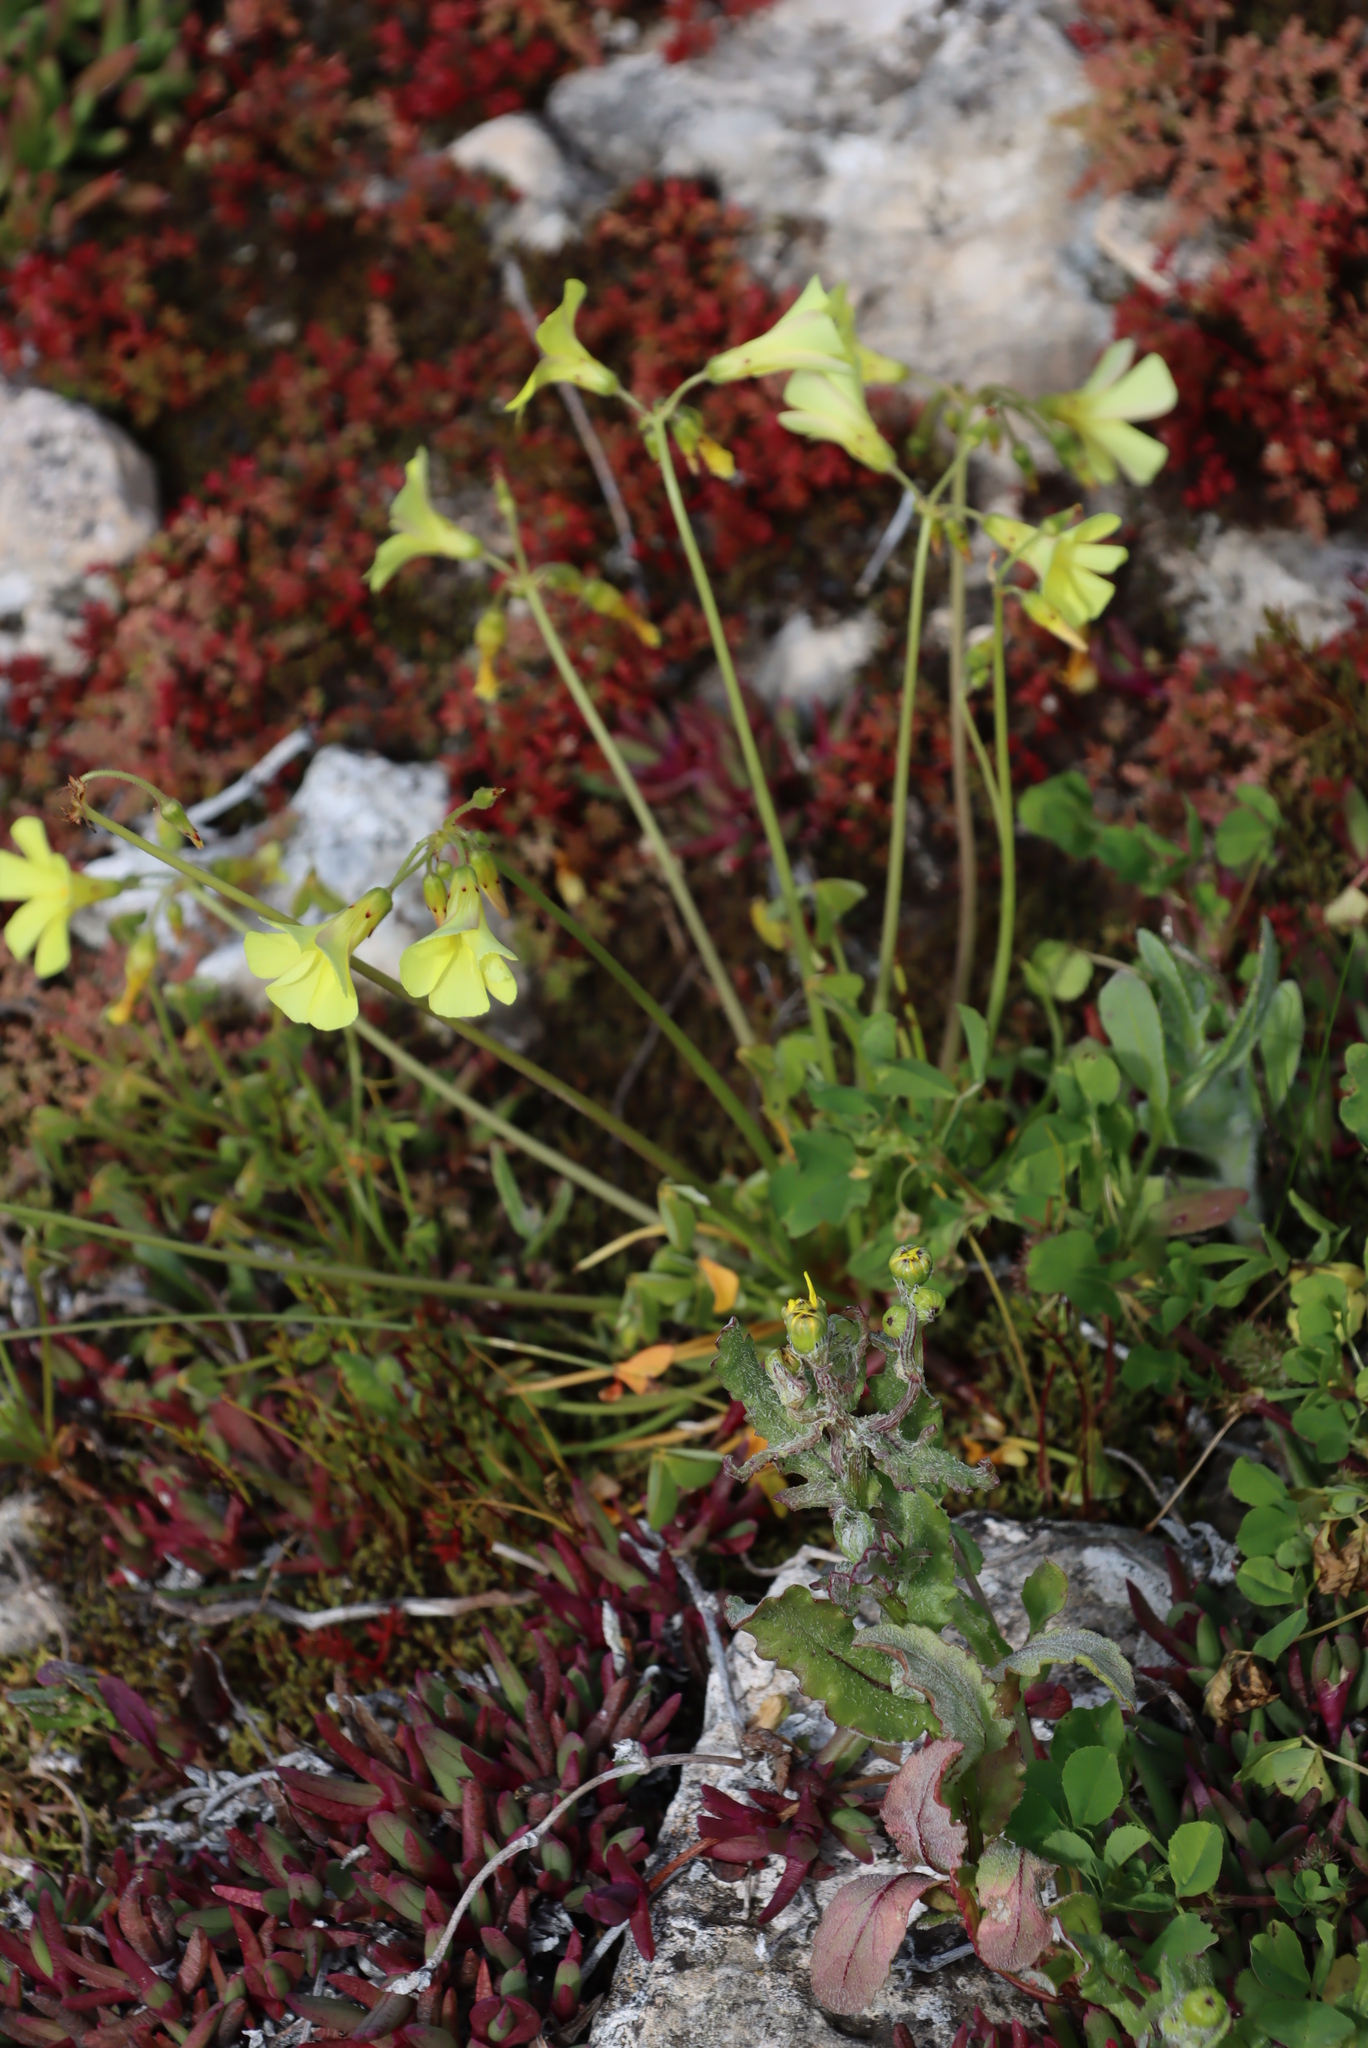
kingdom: Plantae
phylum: Tracheophyta
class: Magnoliopsida
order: Oxalidales
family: Oxalidaceae
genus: Oxalis
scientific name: Oxalis pes-caprae
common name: Bermuda-buttercup
